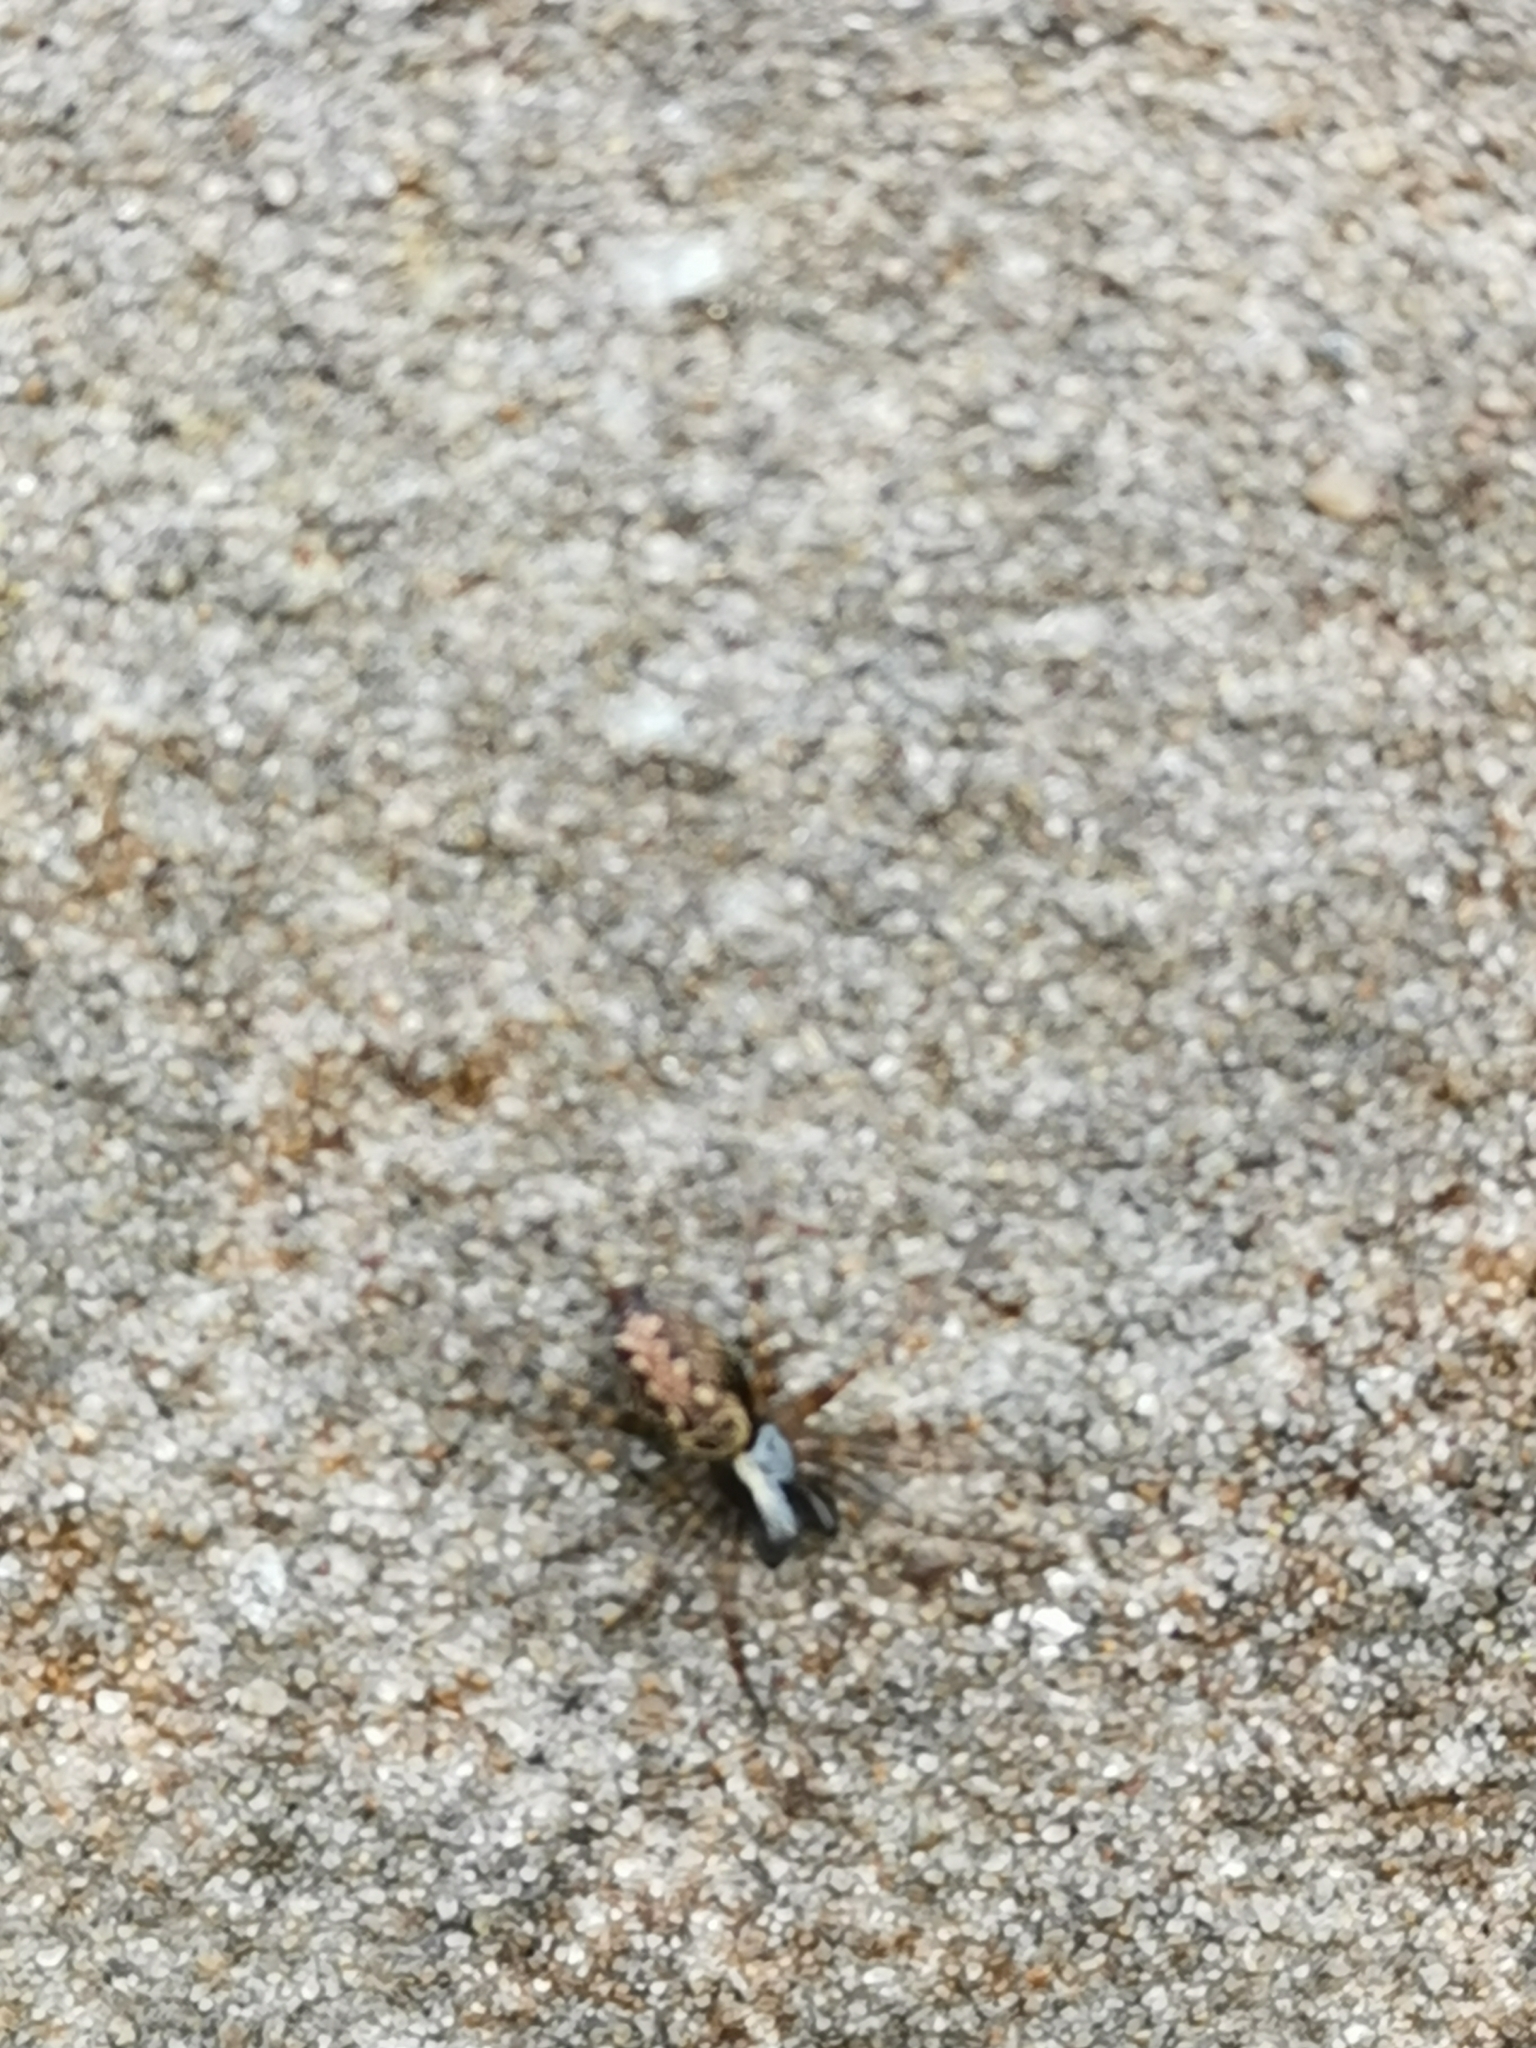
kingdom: Animalia
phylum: Arthropoda
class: Arachnida
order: Araneae
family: Agelenidae
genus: Textrix
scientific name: Textrix denticulata
